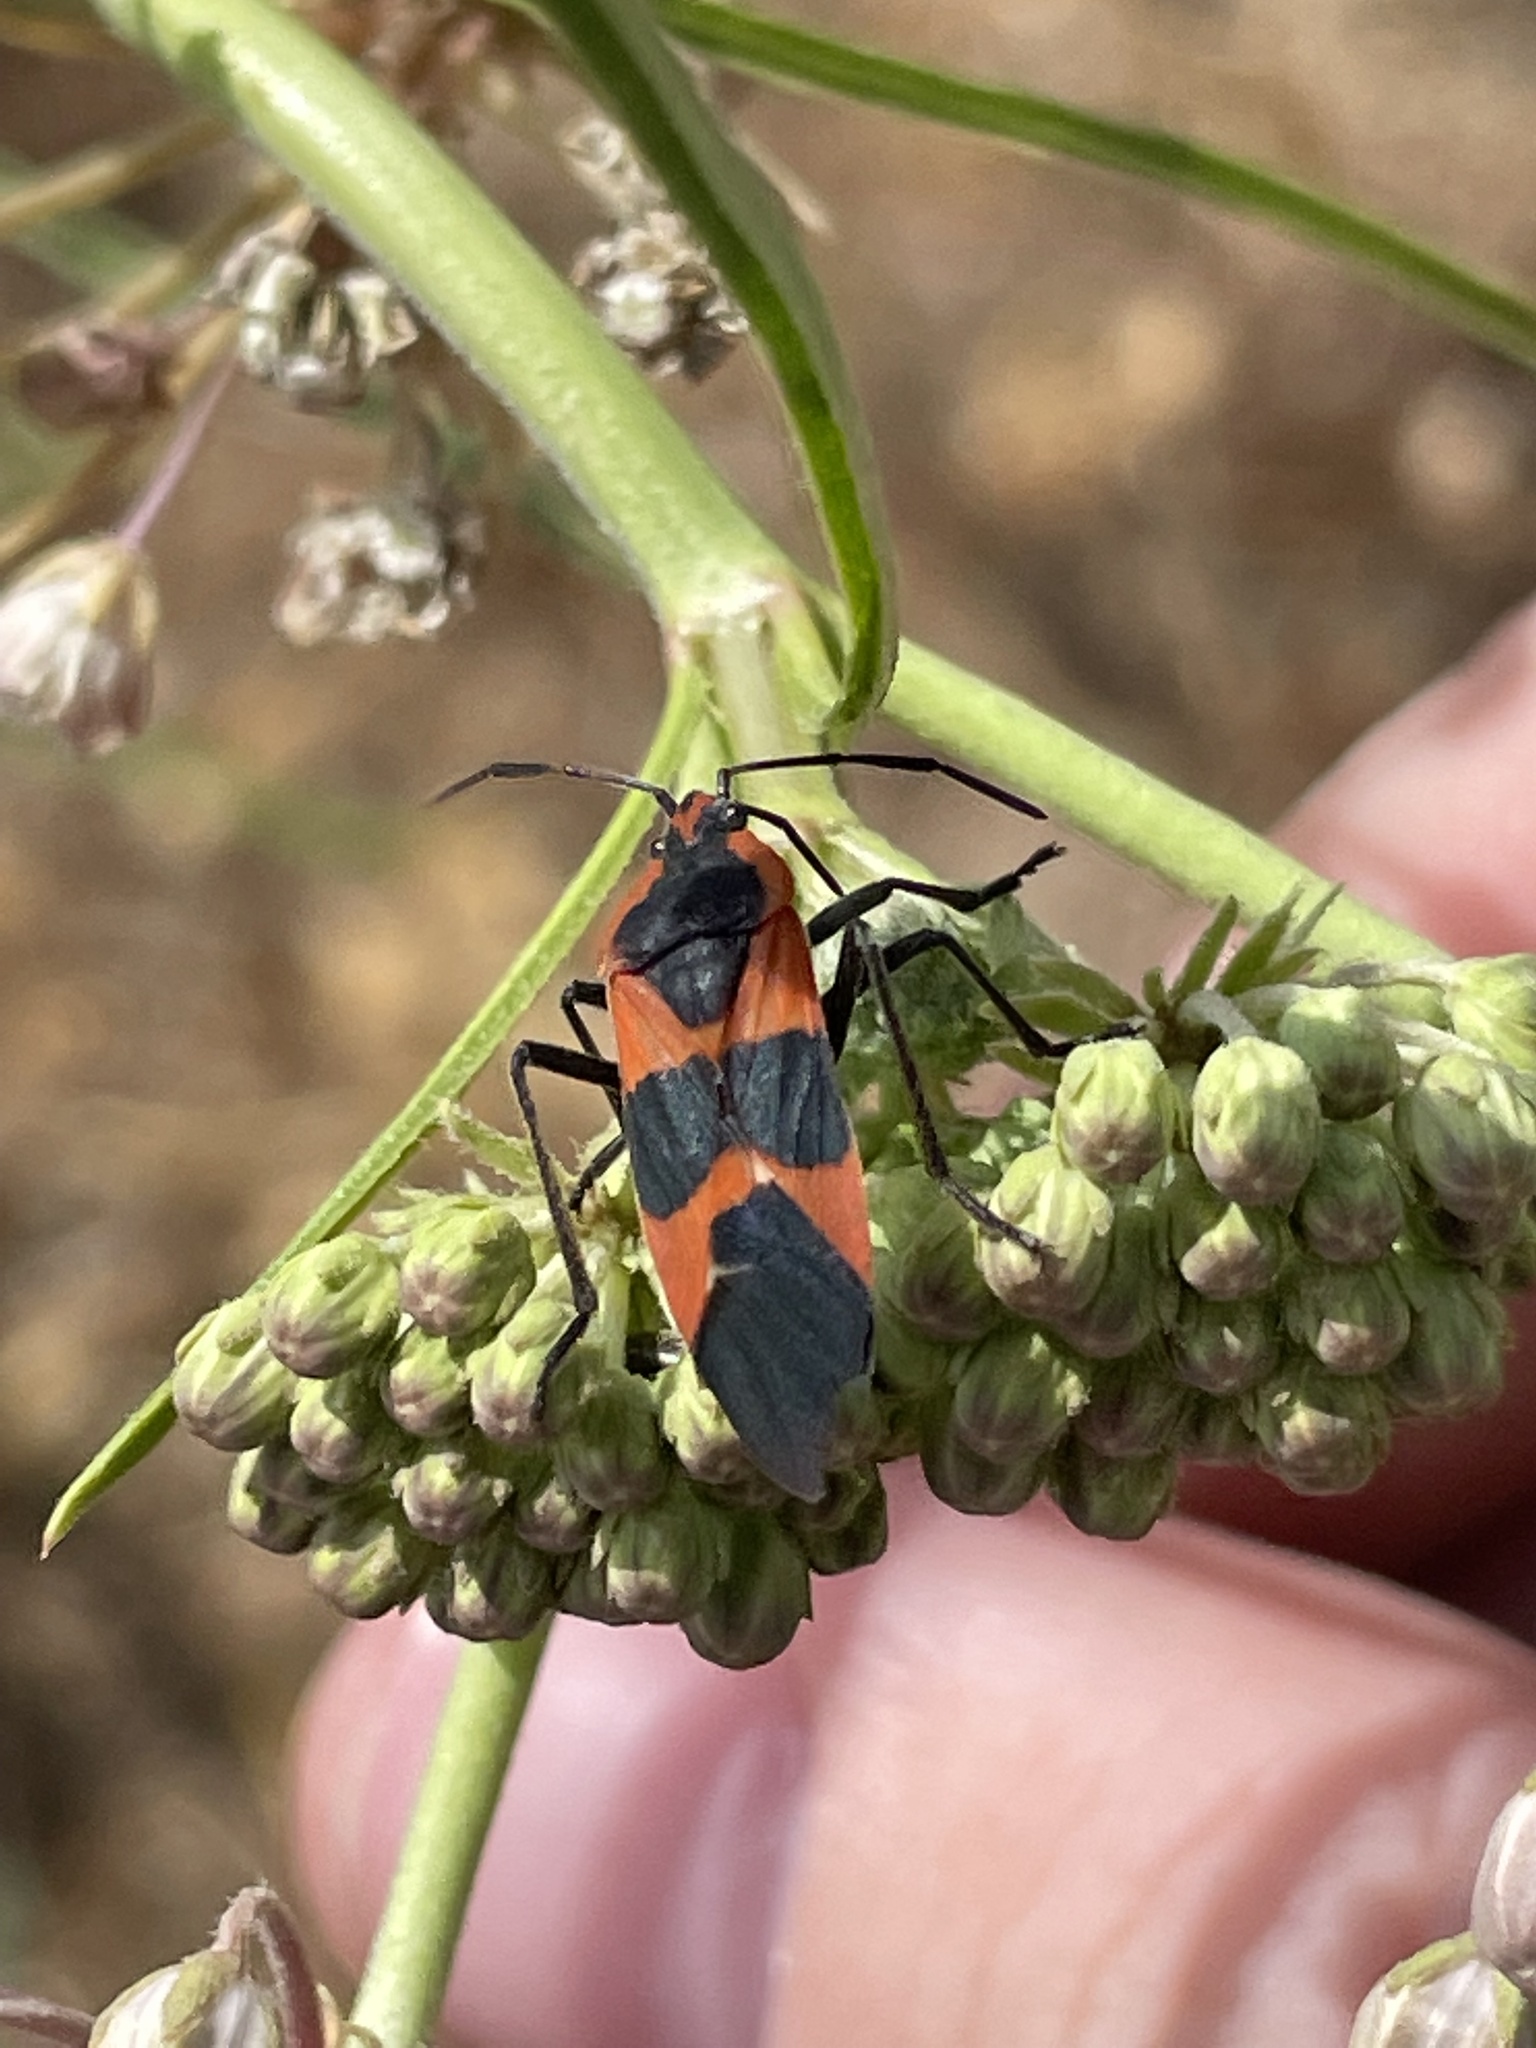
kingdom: Animalia
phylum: Arthropoda
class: Insecta
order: Hemiptera
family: Lygaeidae
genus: Oncopeltus
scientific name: Oncopeltus fasciatus
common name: Large milkweed bug
